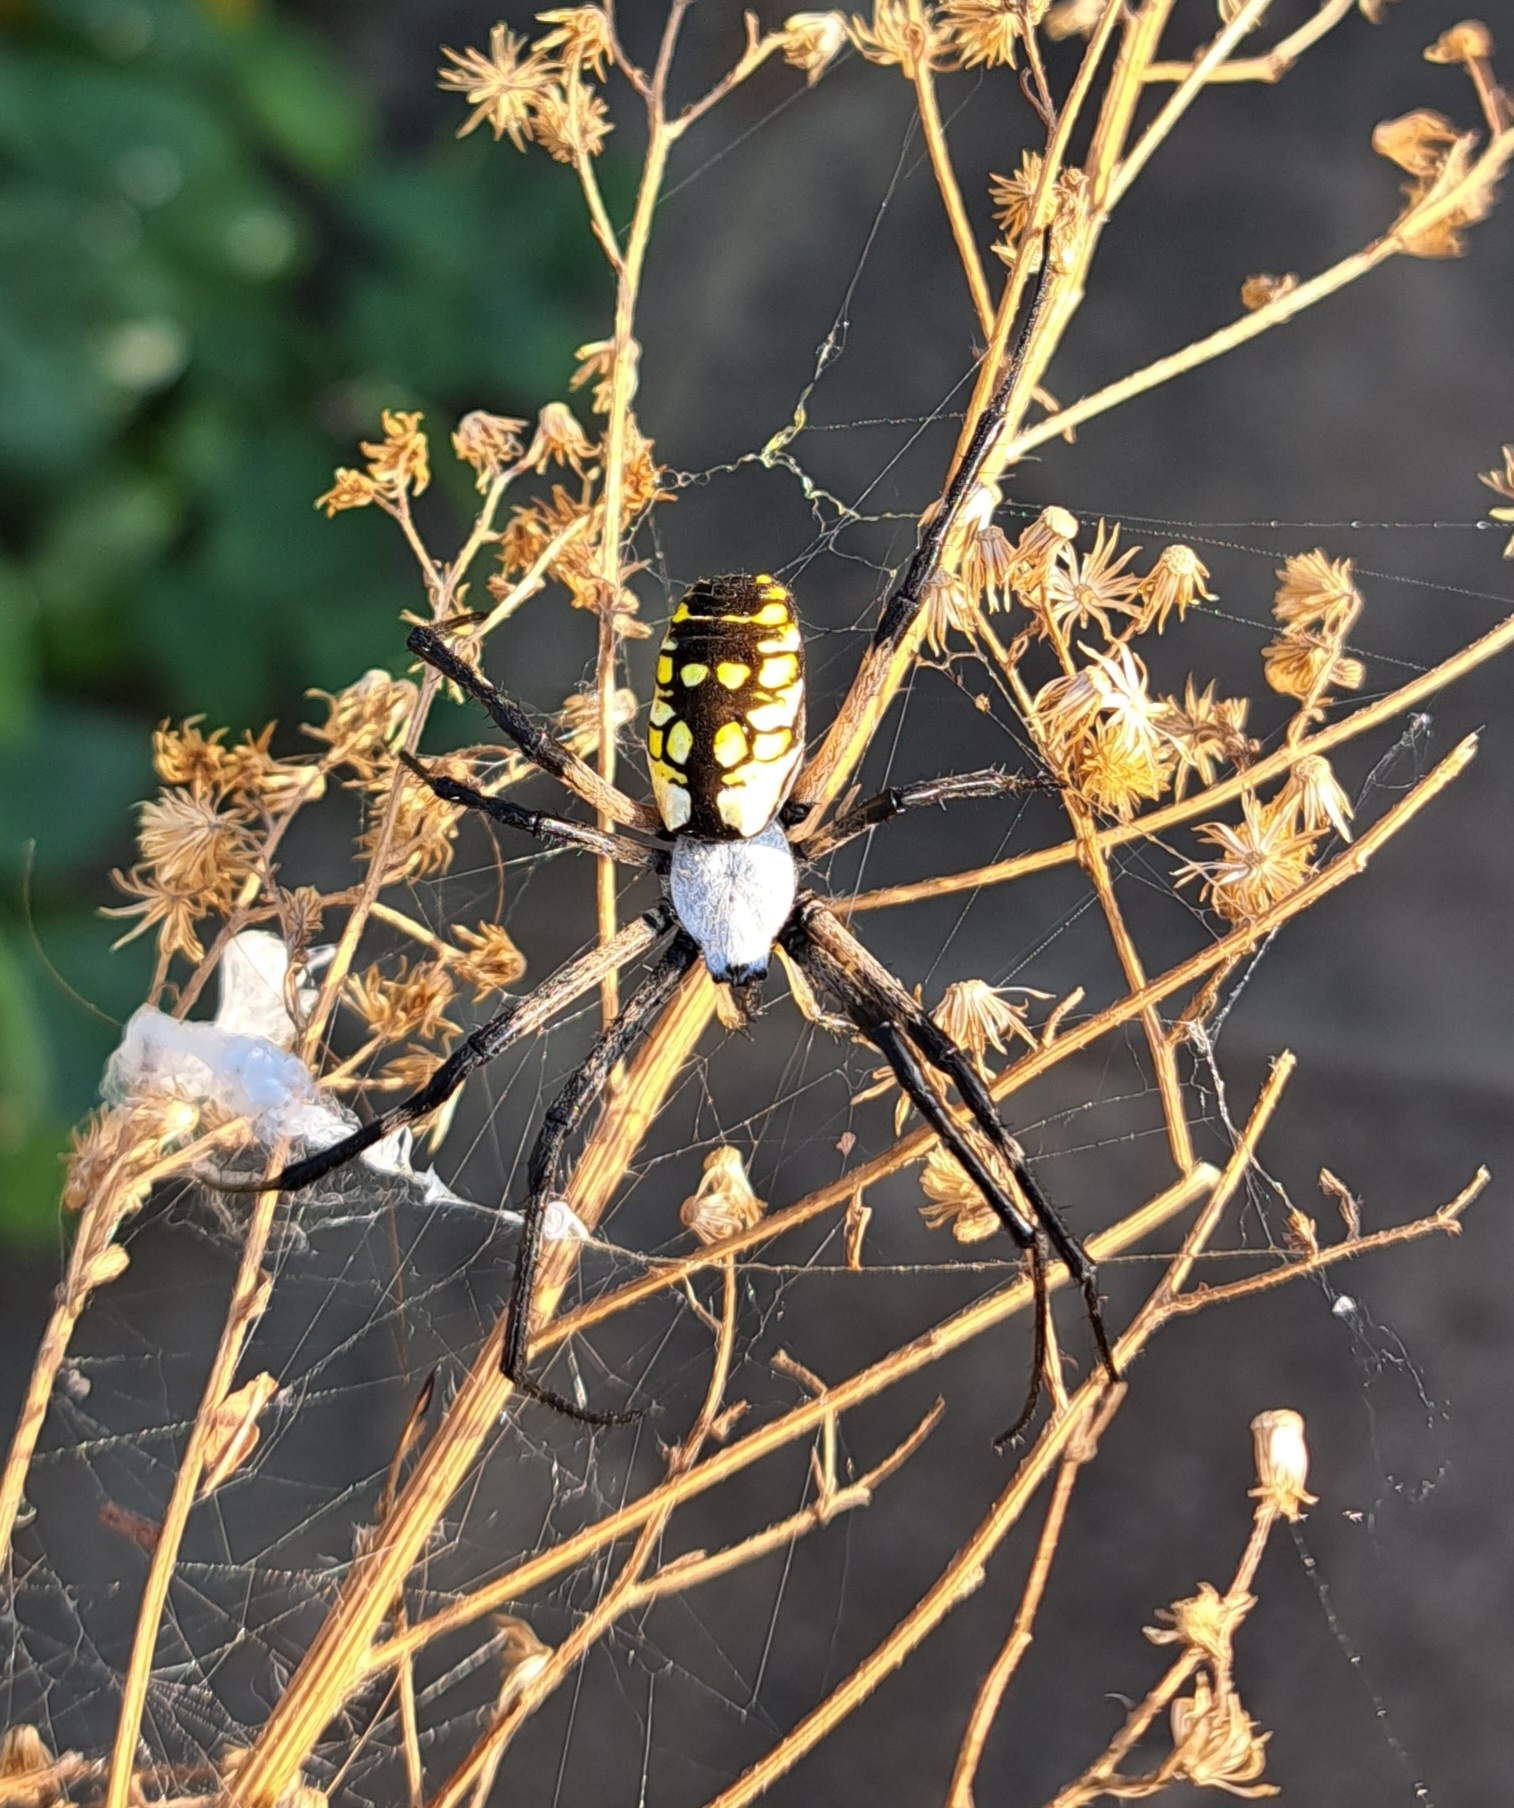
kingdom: Animalia
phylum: Arthropoda
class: Arachnida
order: Araneae
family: Araneidae
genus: Argiope
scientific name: Argiope aurantia
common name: Orb weavers
